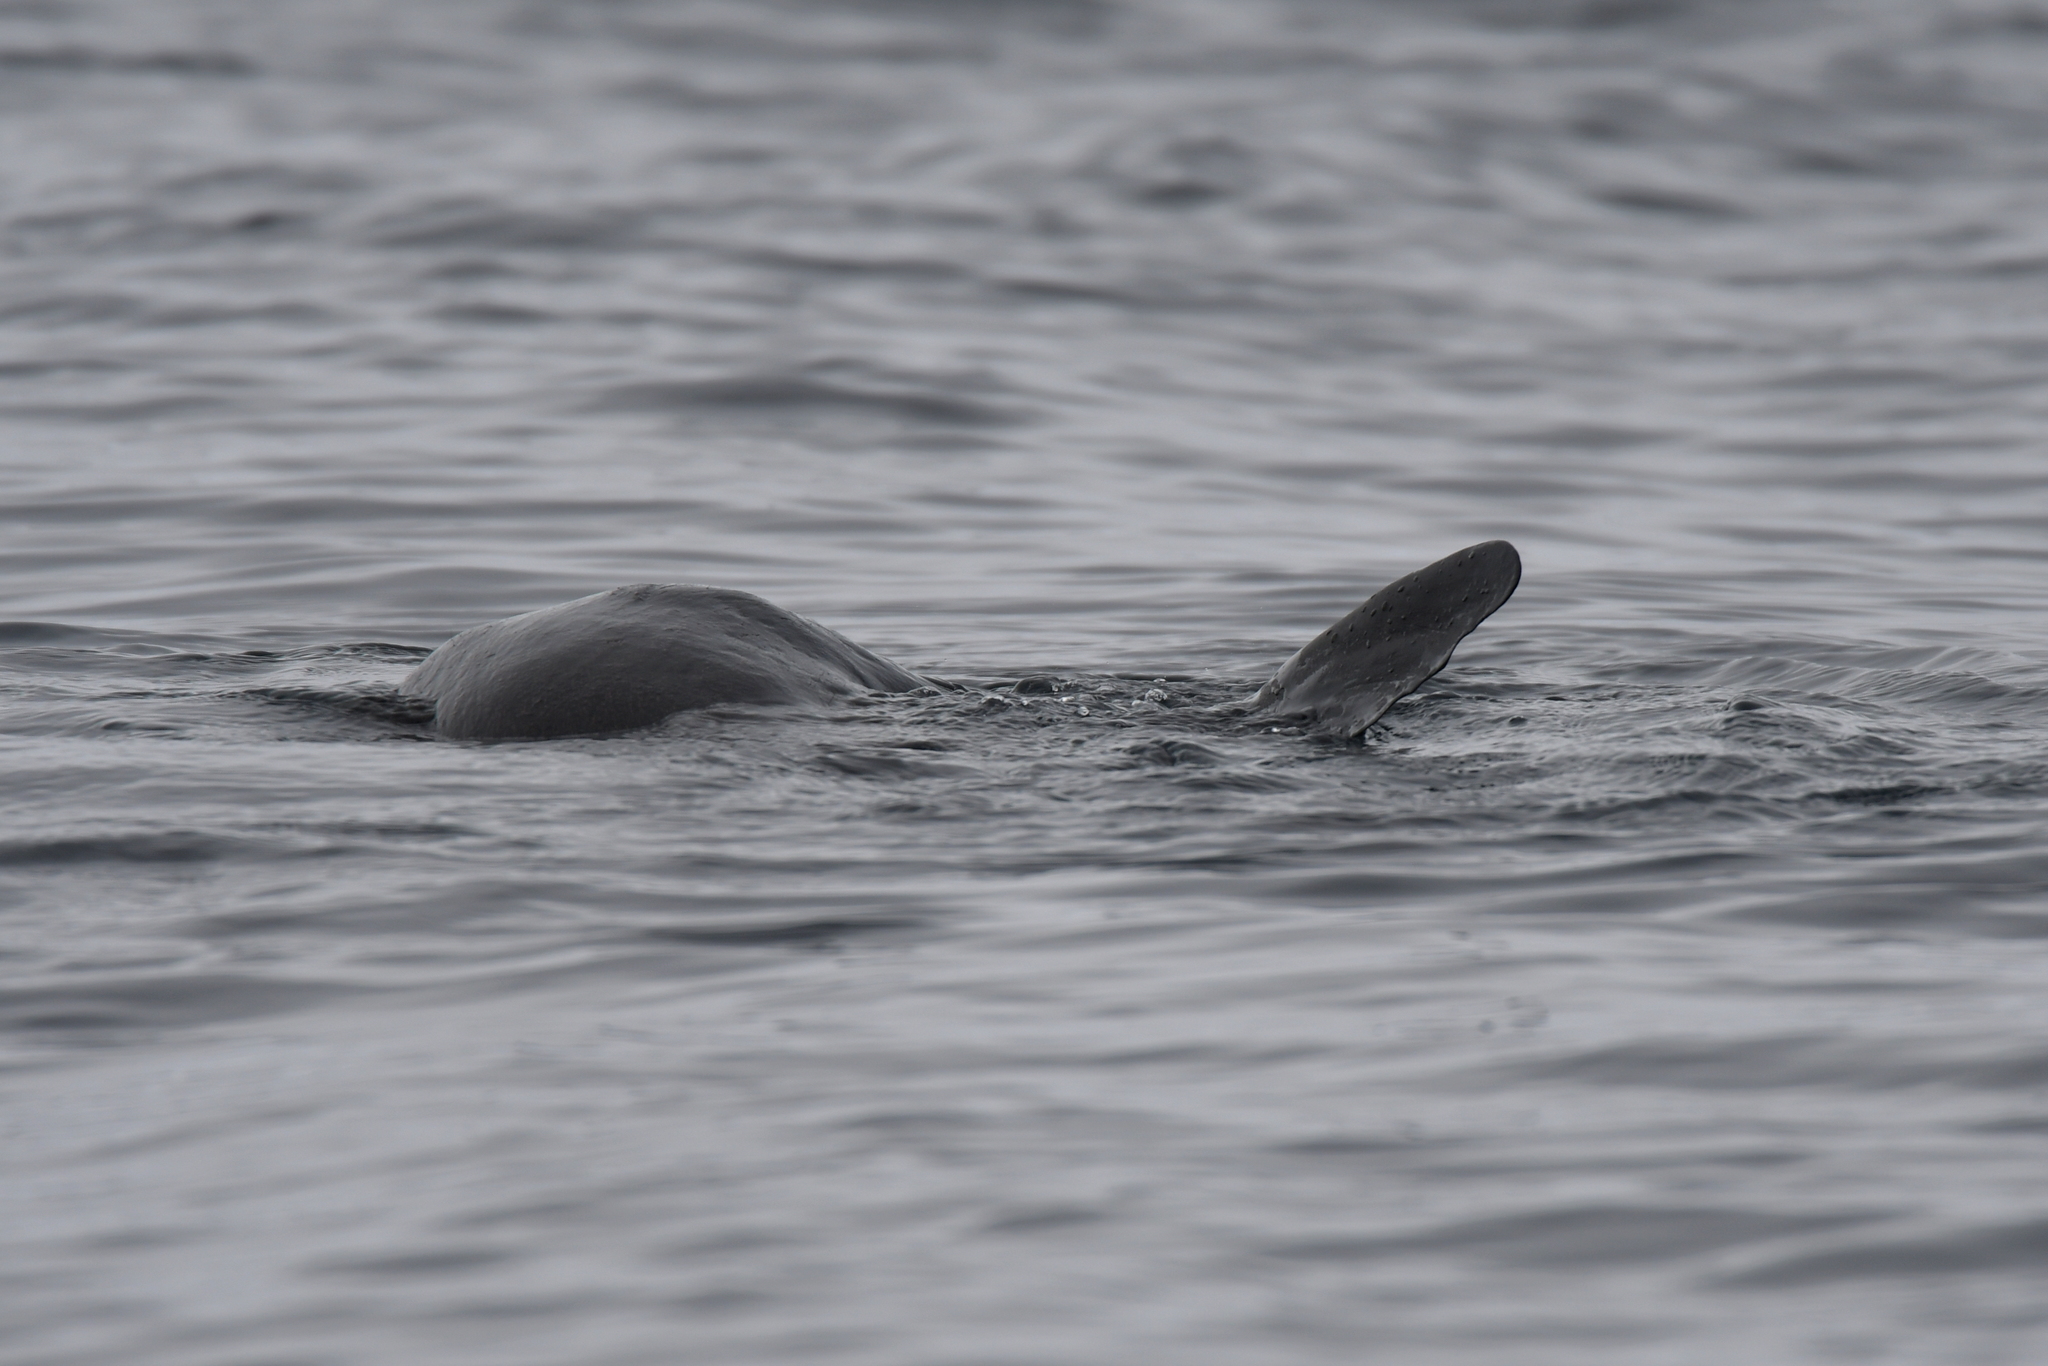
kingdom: Animalia
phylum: Chordata
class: Mammalia
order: Carnivora
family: Otariidae
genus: Arctocephalus
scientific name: Arctocephalus forsteri
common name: New zealand fur seal
